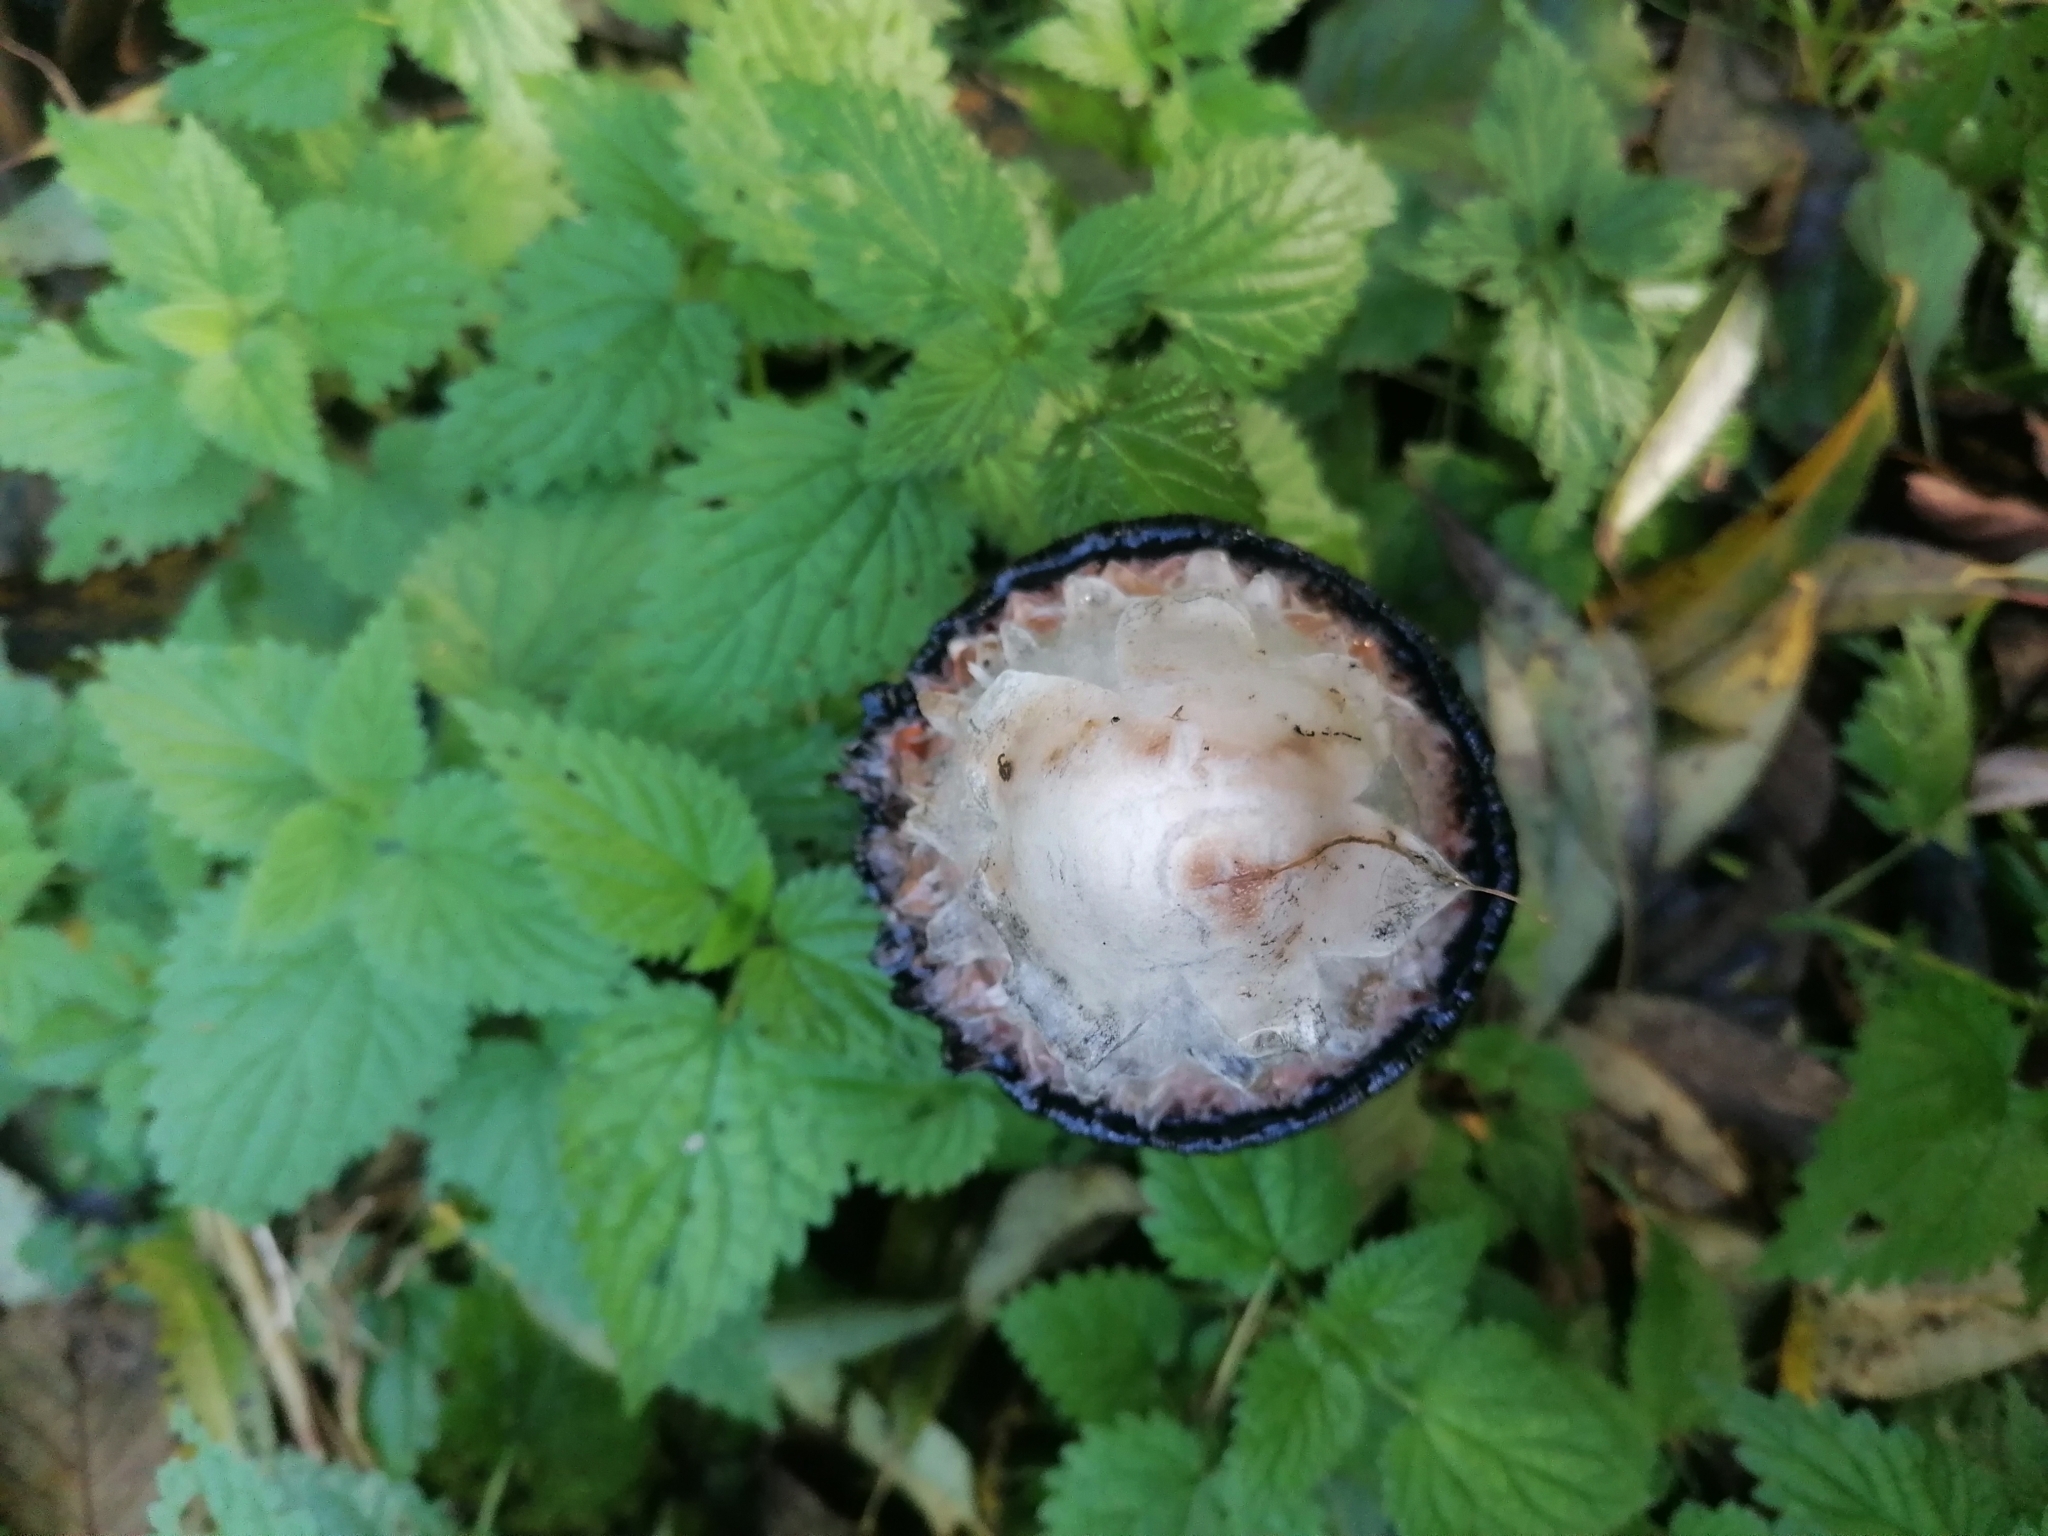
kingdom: Fungi
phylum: Basidiomycota
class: Agaricomycetes
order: Agaricales
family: Agaricaceae
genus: Coprinus
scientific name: Coprinus comatus
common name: Lawyer's wig
